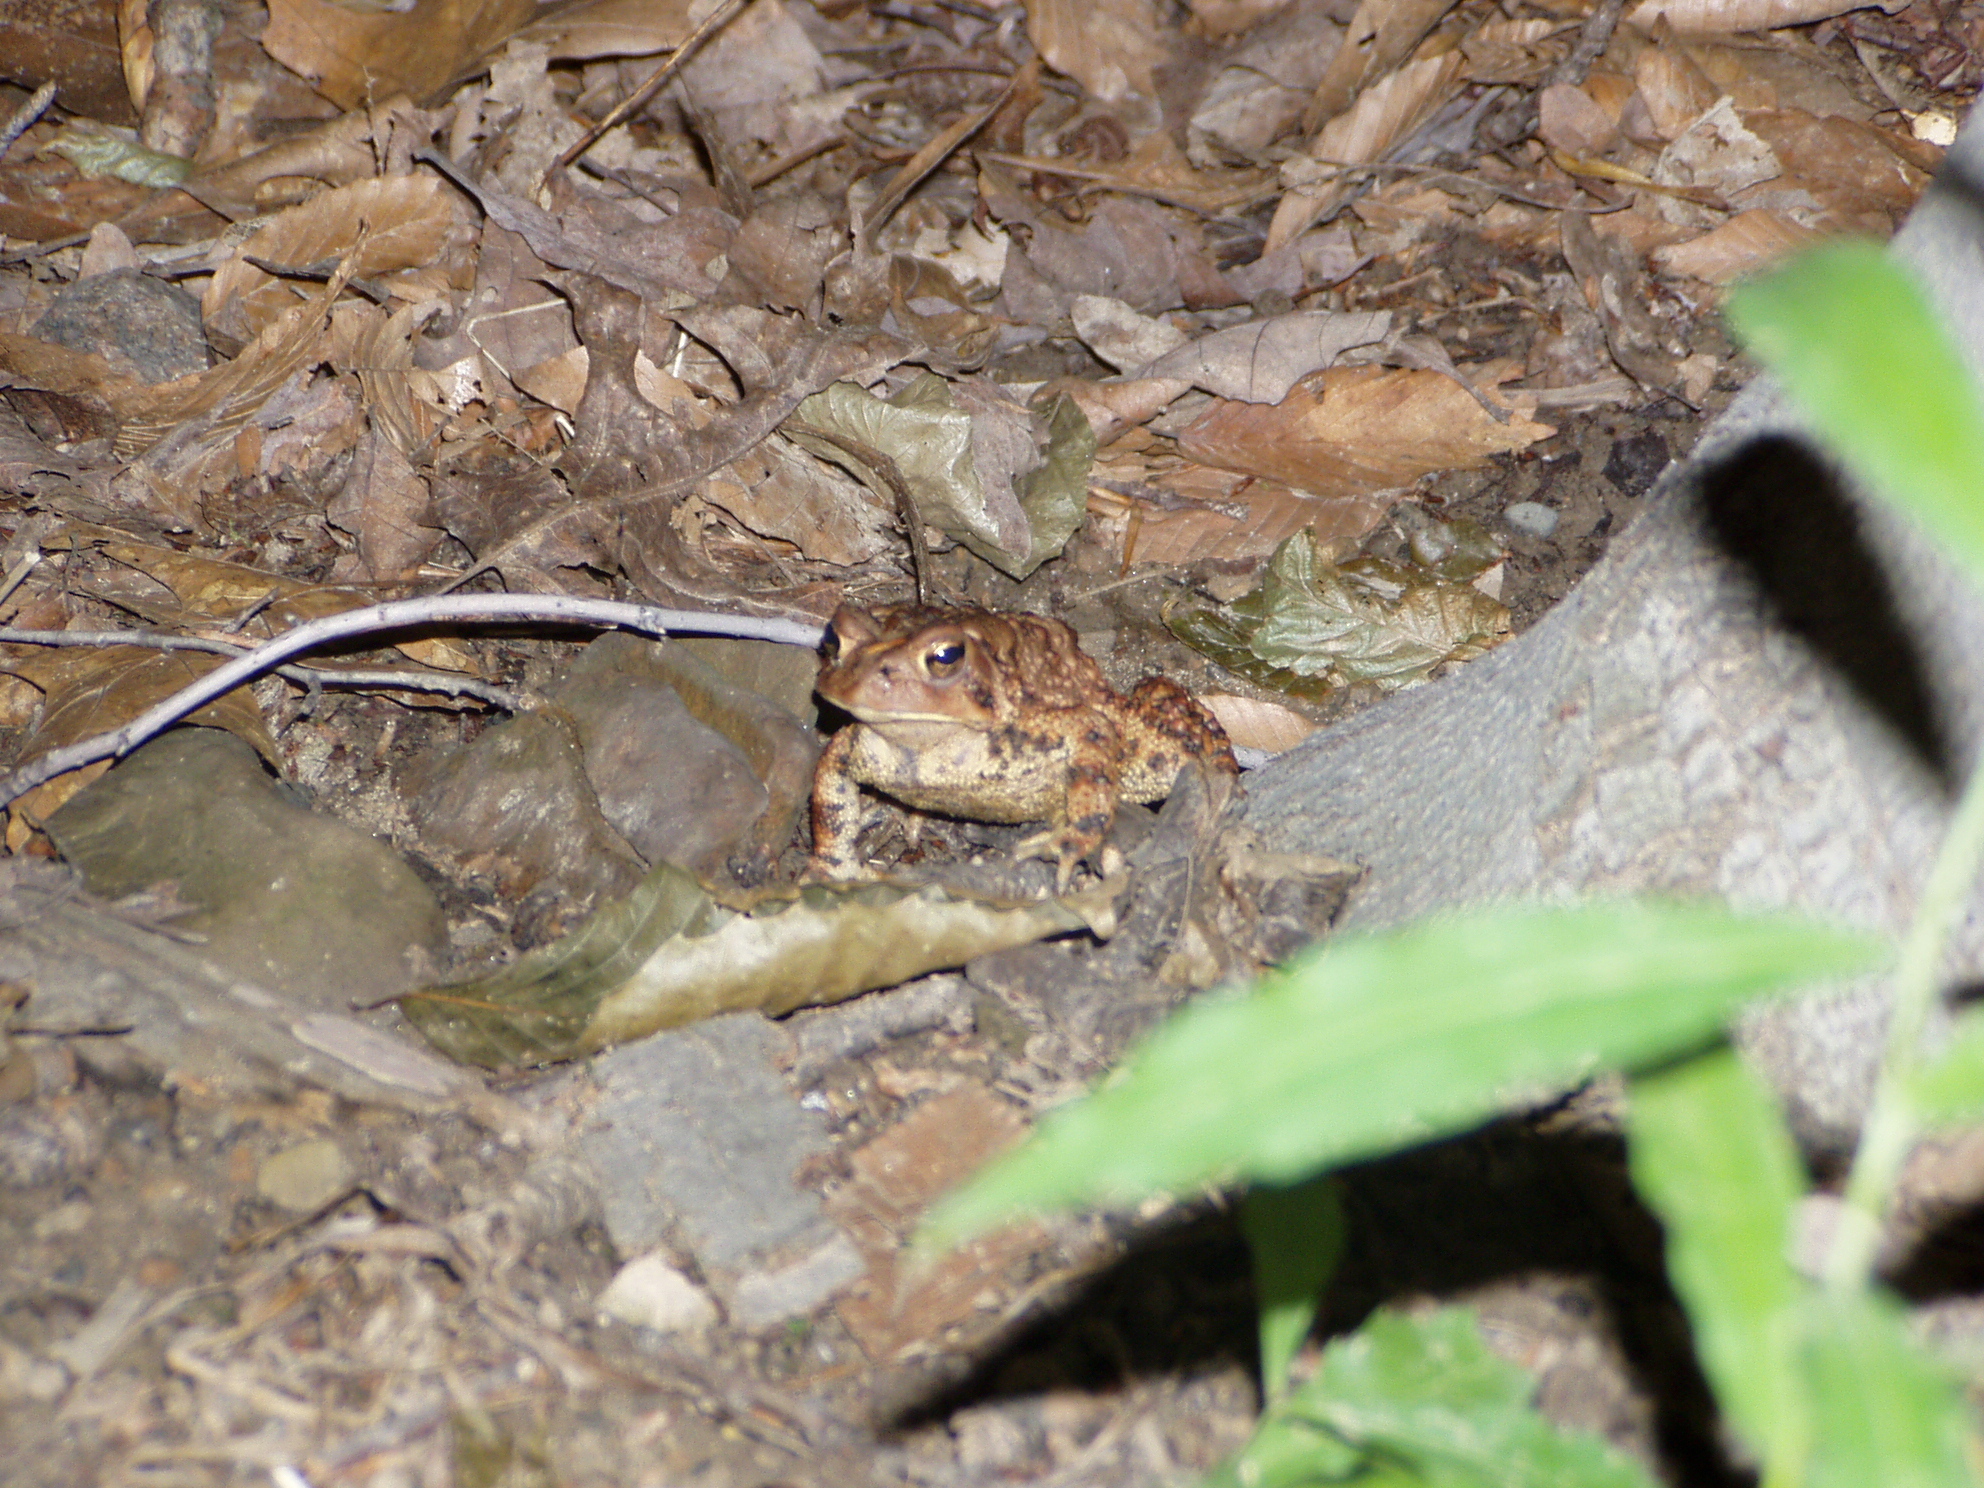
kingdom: Animalia
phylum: Chordata
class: Amphibia
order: Anura
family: Bufonidae
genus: Anaxyrus
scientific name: Anaxyrus americanus
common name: American toad
